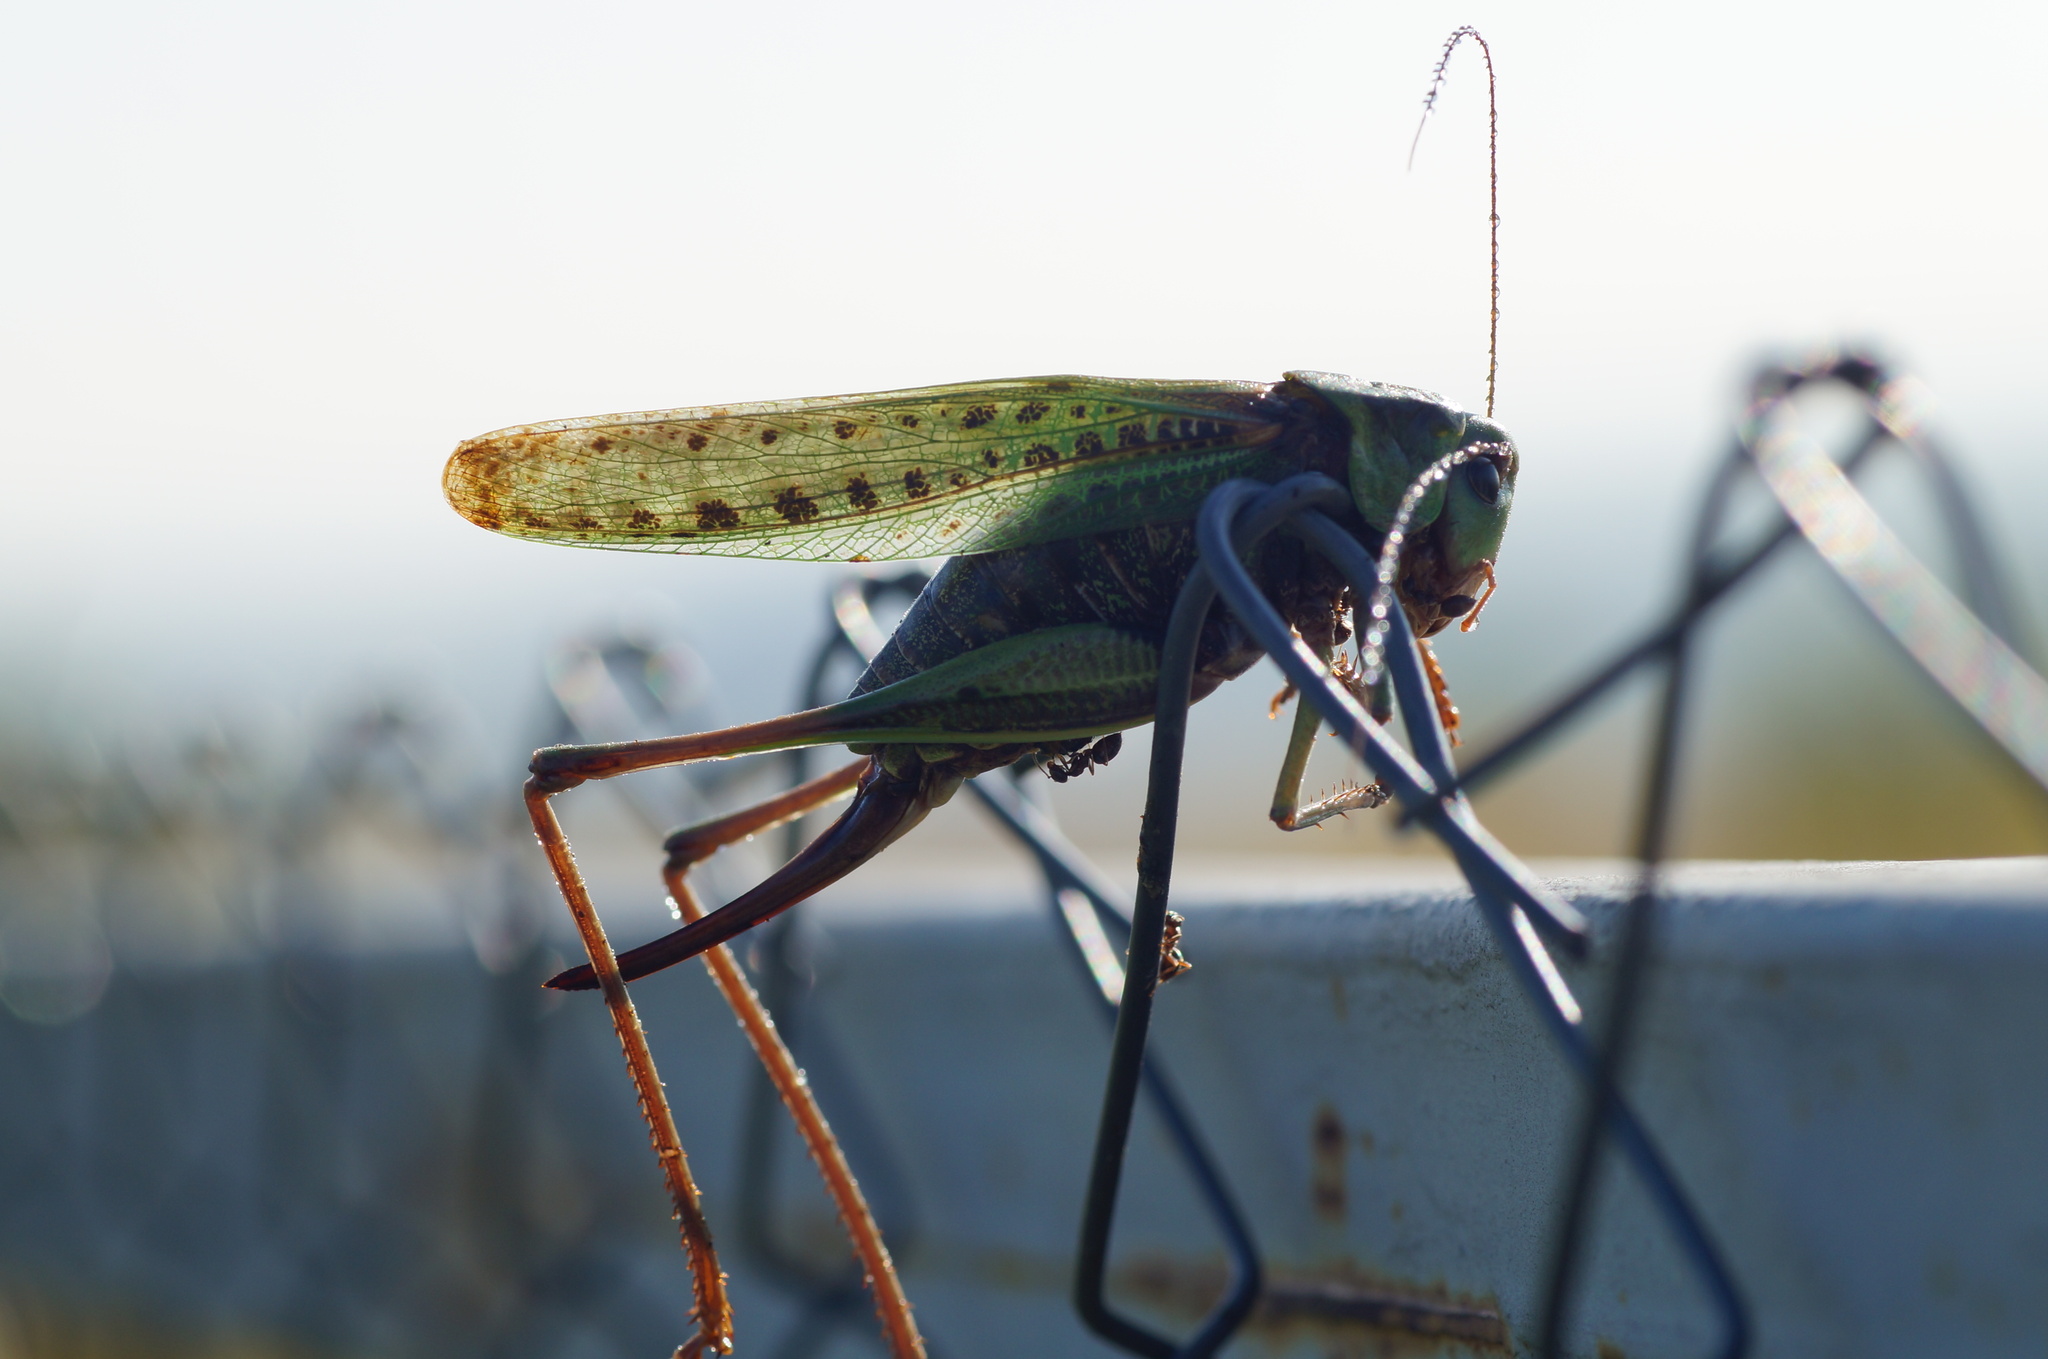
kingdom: Animalia
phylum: Arthropoda
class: Insecta
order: Orthoptera
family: Tettigoniidae
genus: Decticus
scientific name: Decticus verrucivorus
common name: Wart-biter
